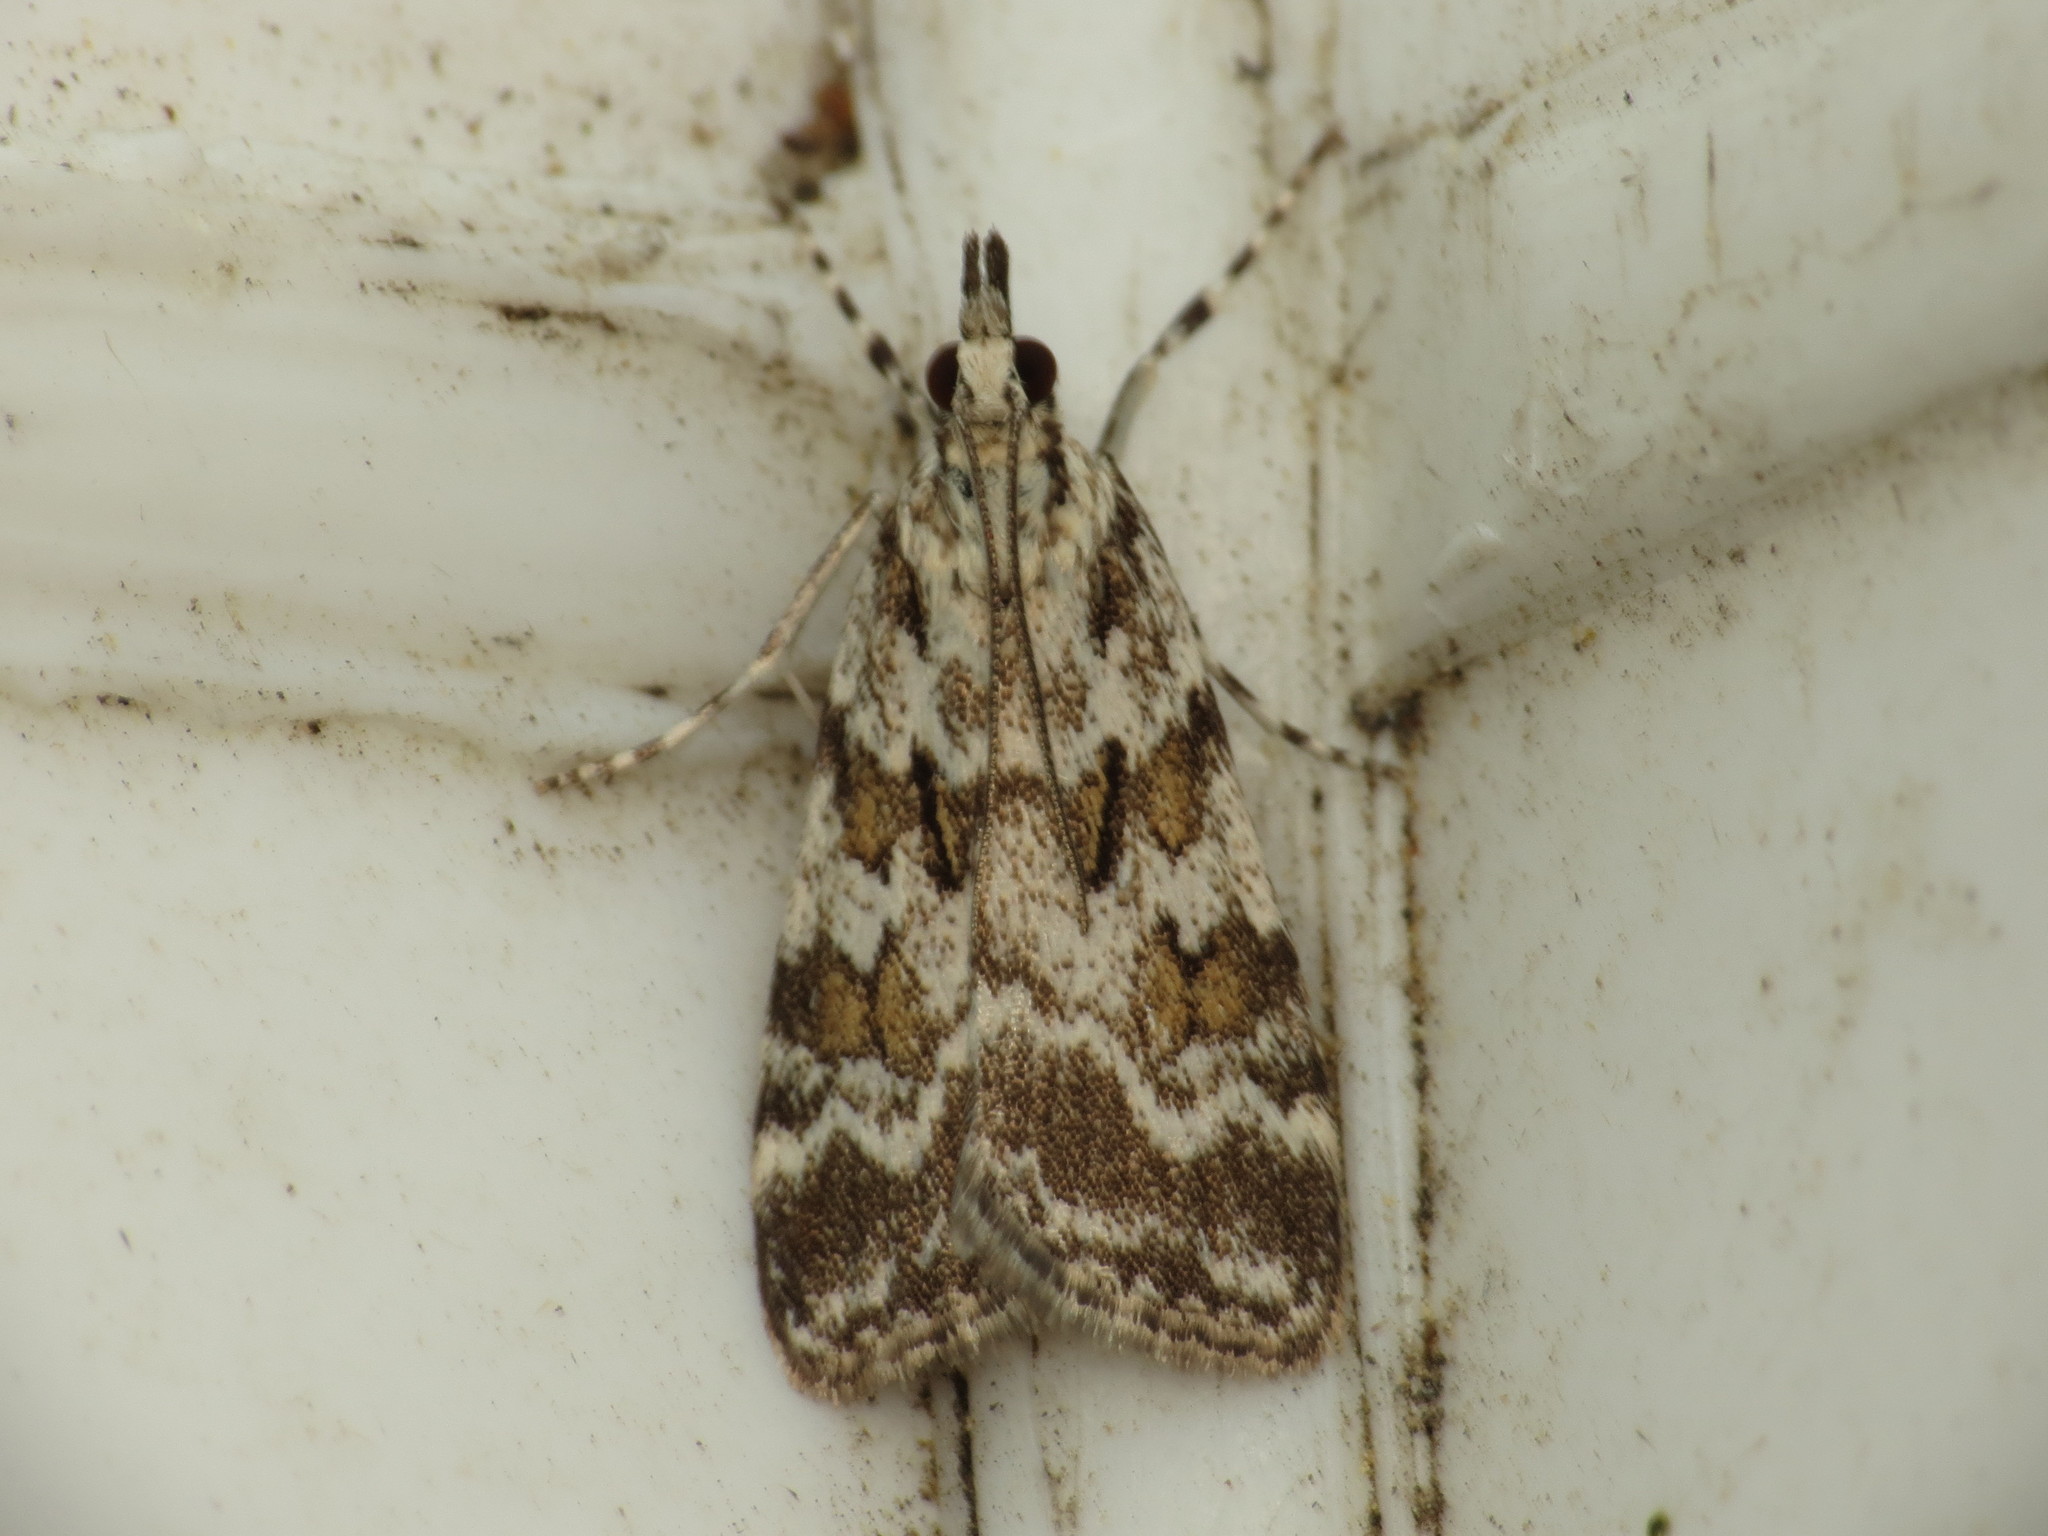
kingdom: Animalia
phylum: Arthropoda
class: Insecta
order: Lepidoptera
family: Crambidae
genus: Scoparia
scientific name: Scoparia pyralella
